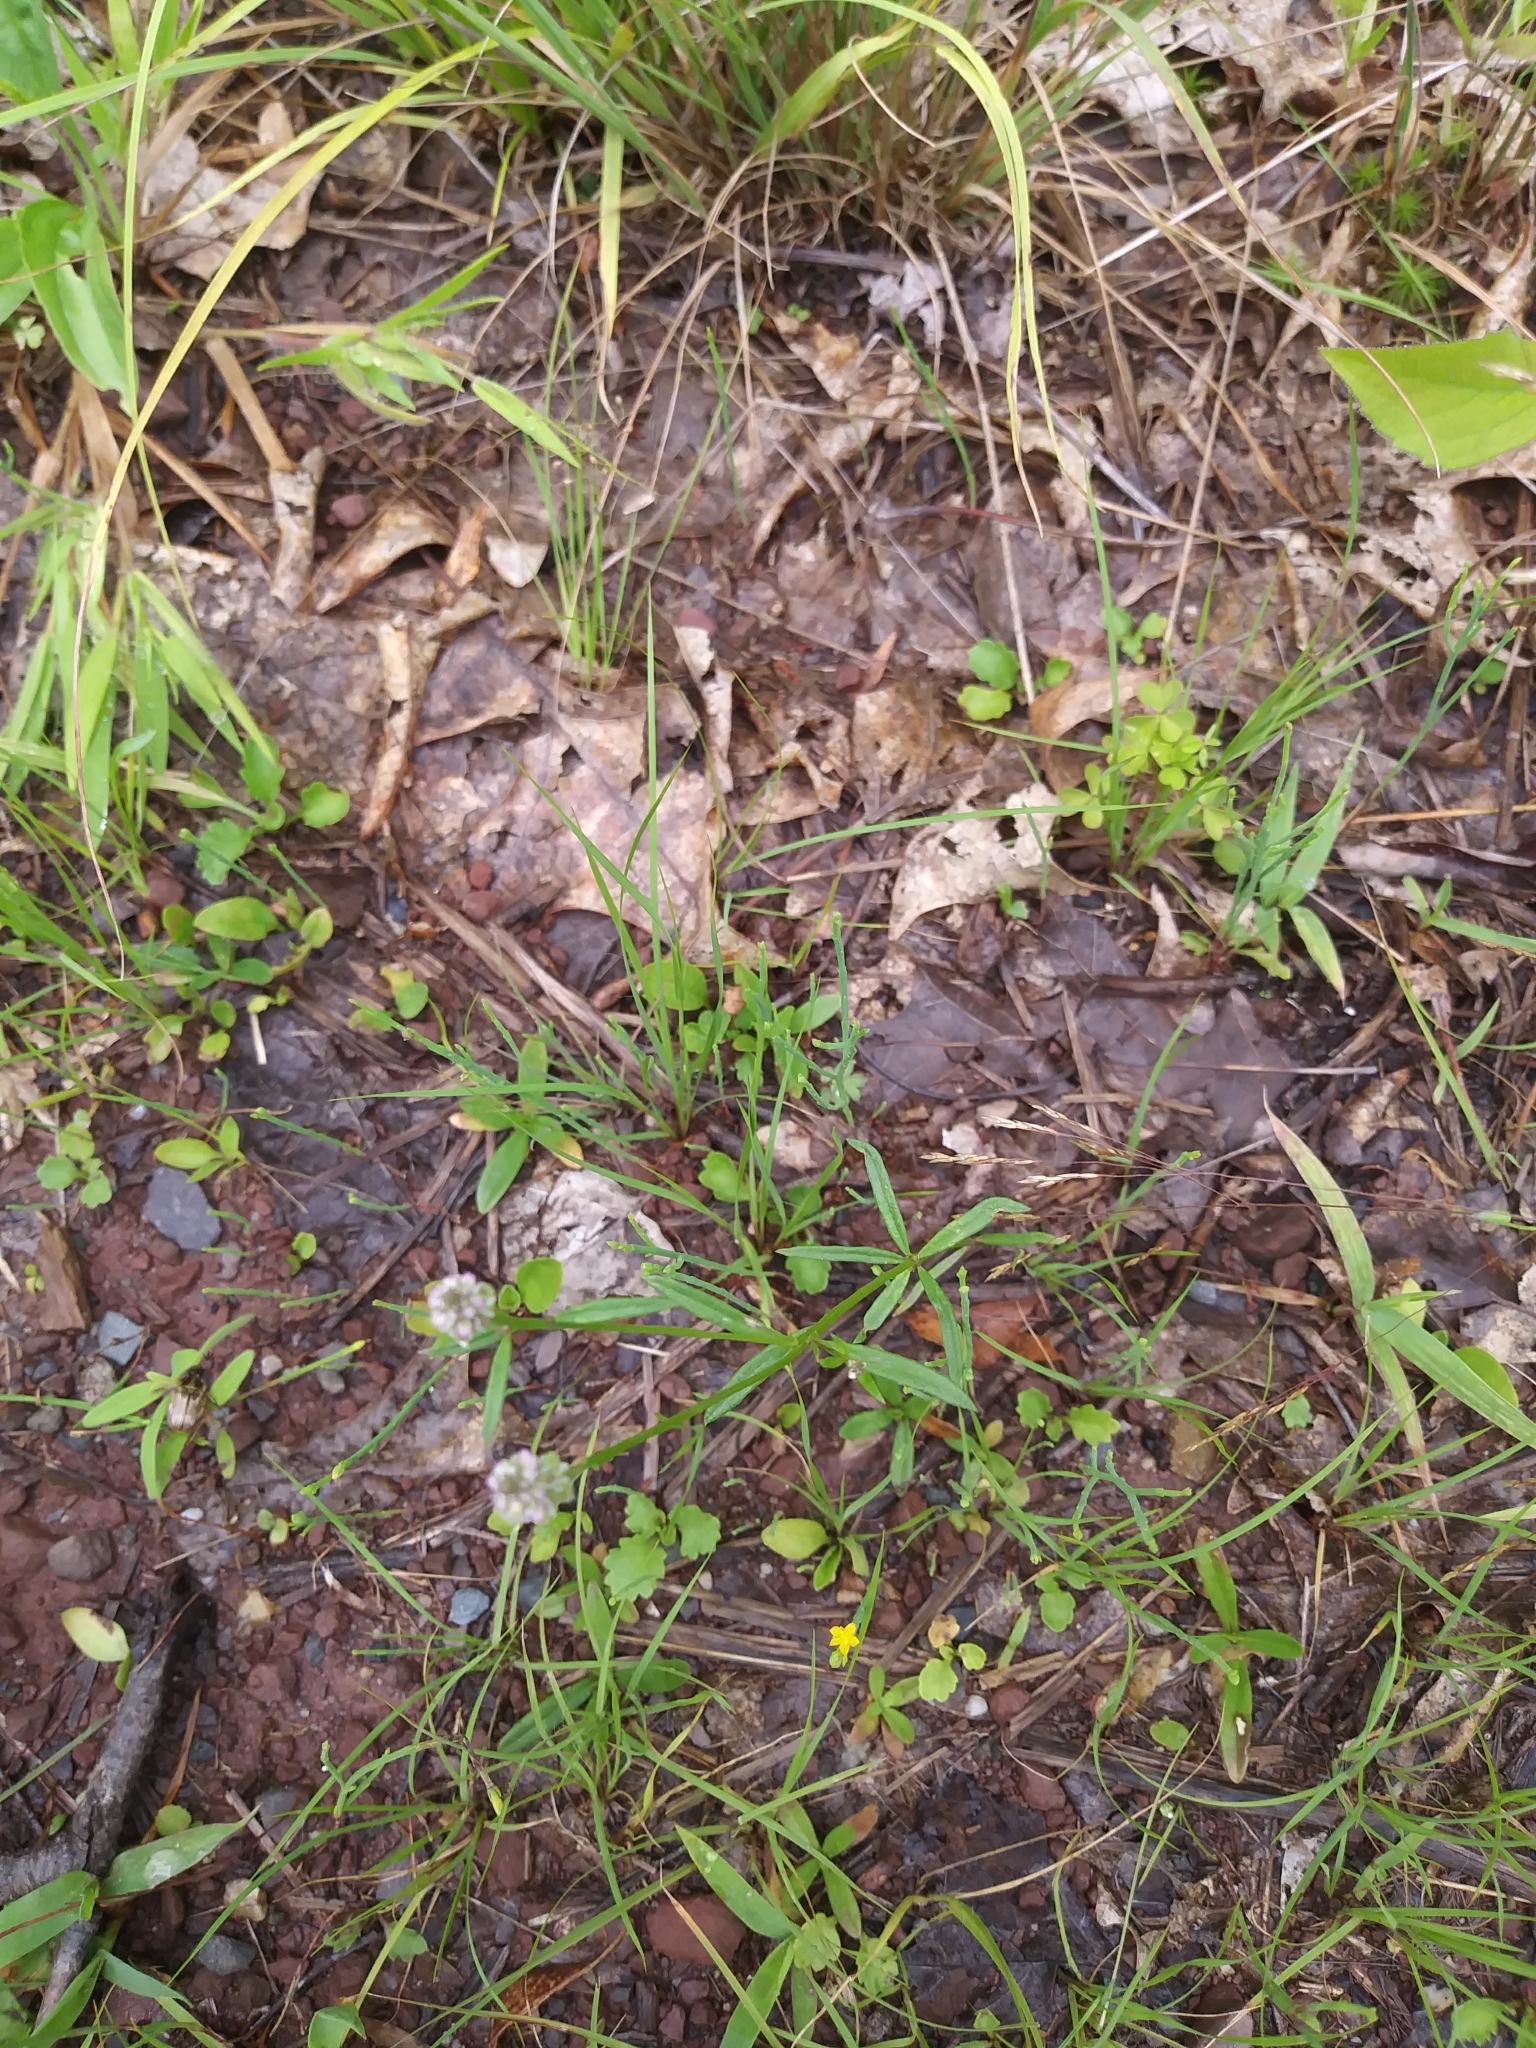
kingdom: Plantae
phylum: Tracheophyta
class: Magnoliopsida
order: Fabales
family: Polygalaceae
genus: Polygala
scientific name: Polygala verticillata
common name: Whorl milkwort
